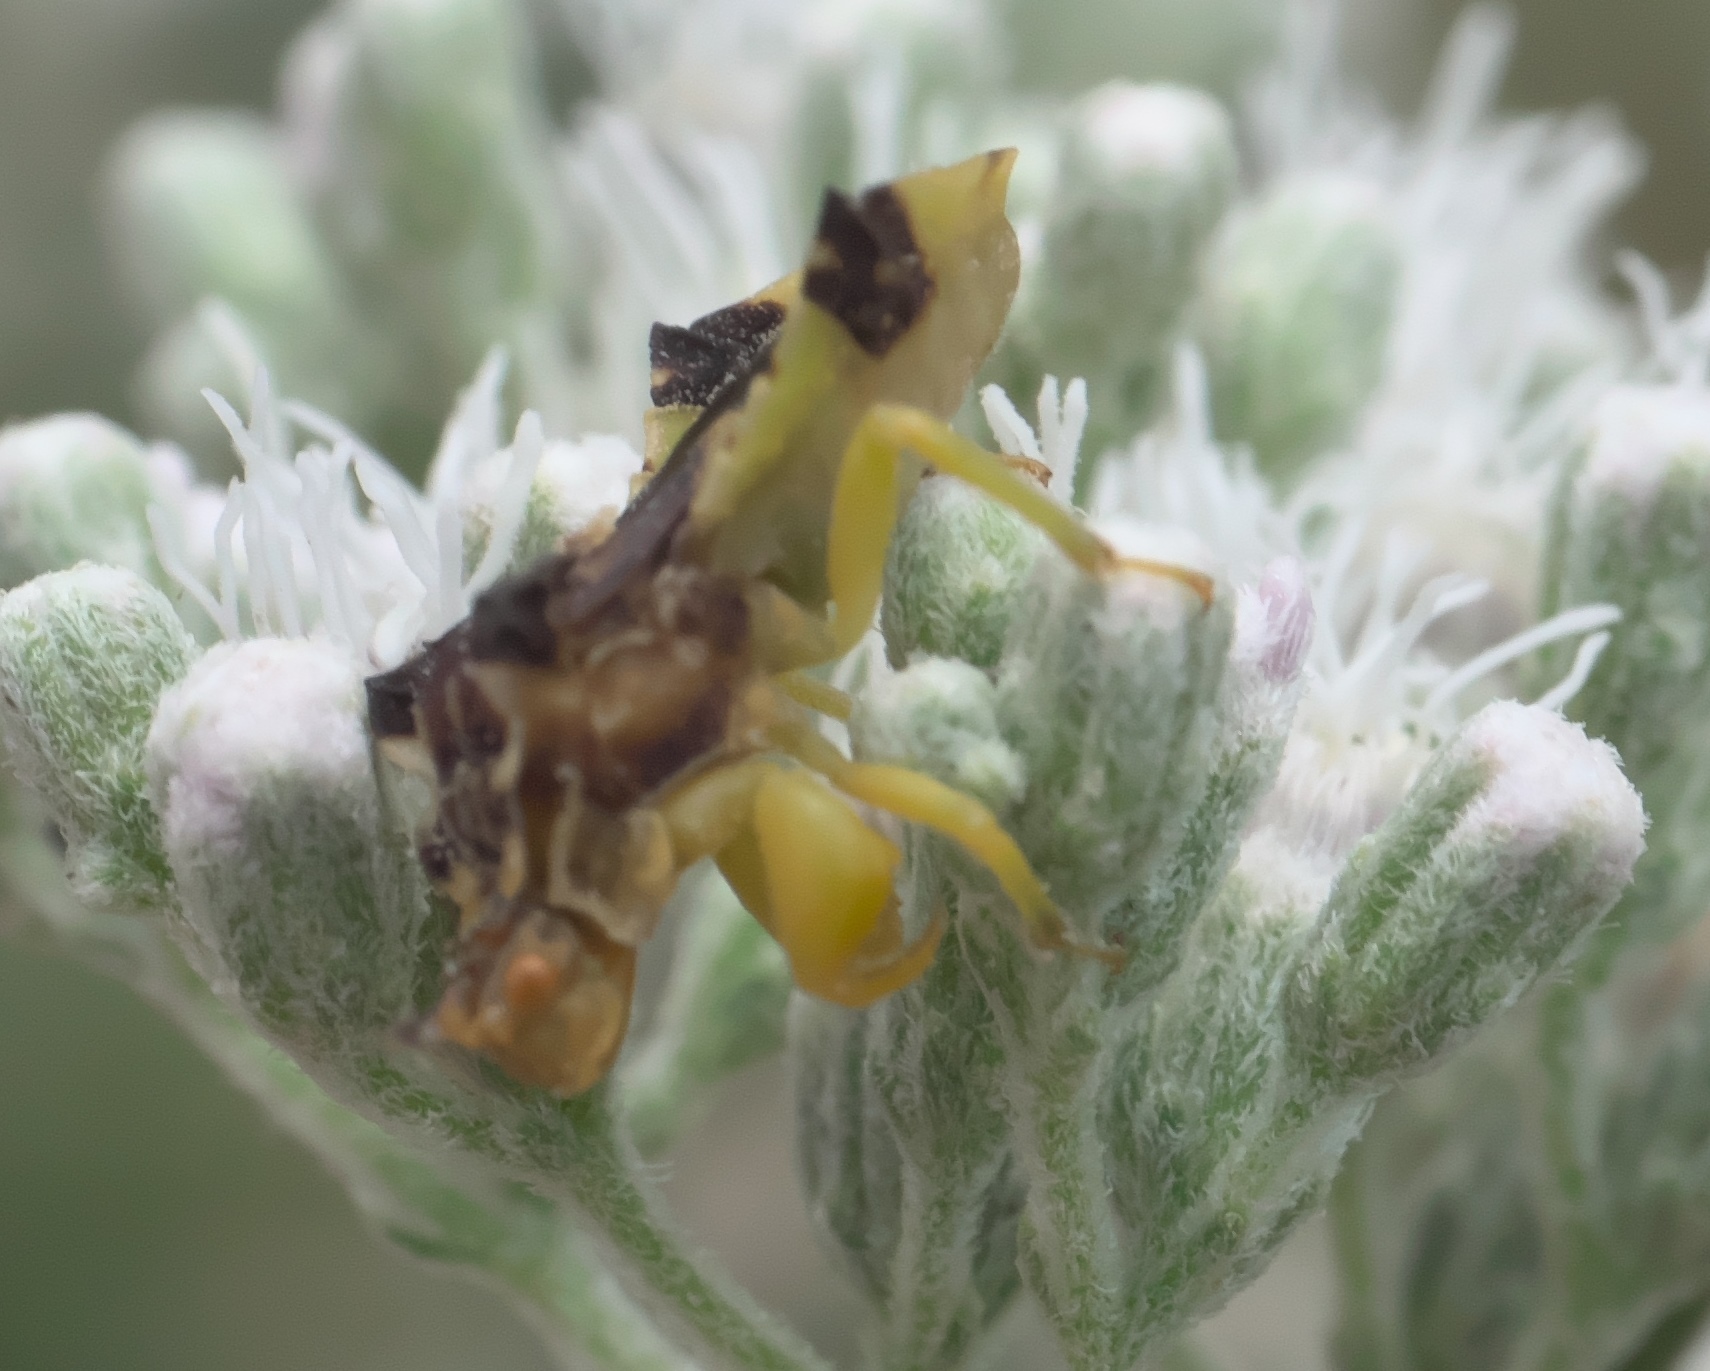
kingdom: Animalia
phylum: Arthropoda
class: Insecta
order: Hemiptera
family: Reduviidae
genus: Phymata
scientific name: Phymata americana
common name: Jagged ambush bug
